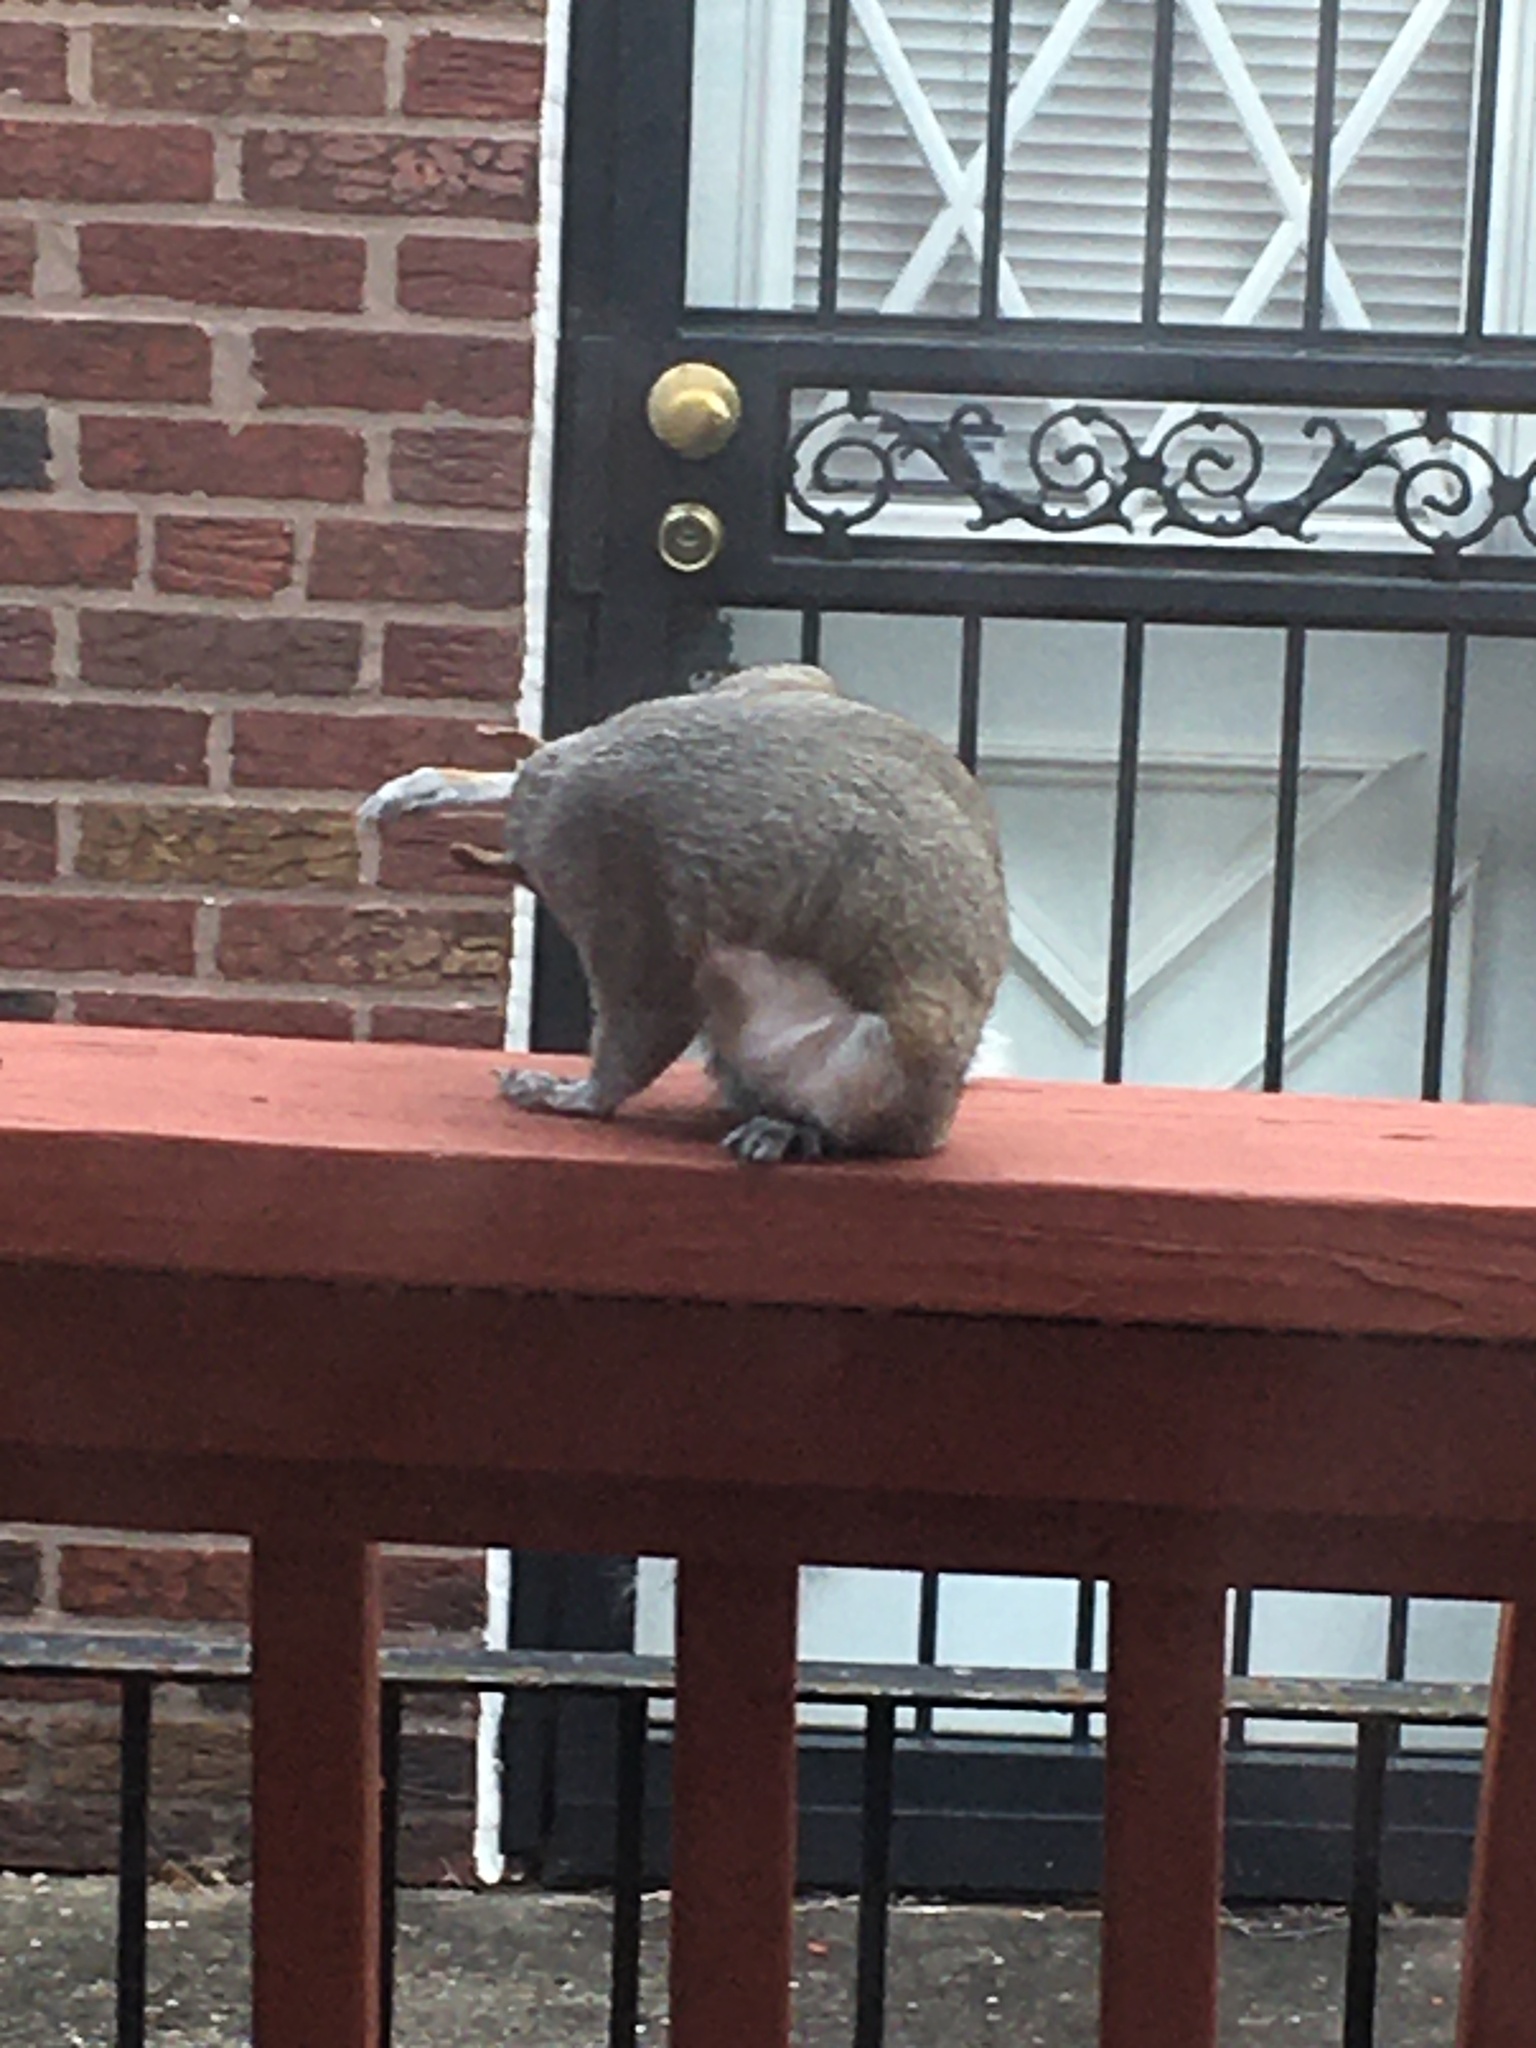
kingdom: Animalia
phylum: Chordata
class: Mammalia
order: Rodentia
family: Sciuridae
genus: Sciurus
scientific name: Sciurus carolinensis
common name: Eastern gray squirrel
